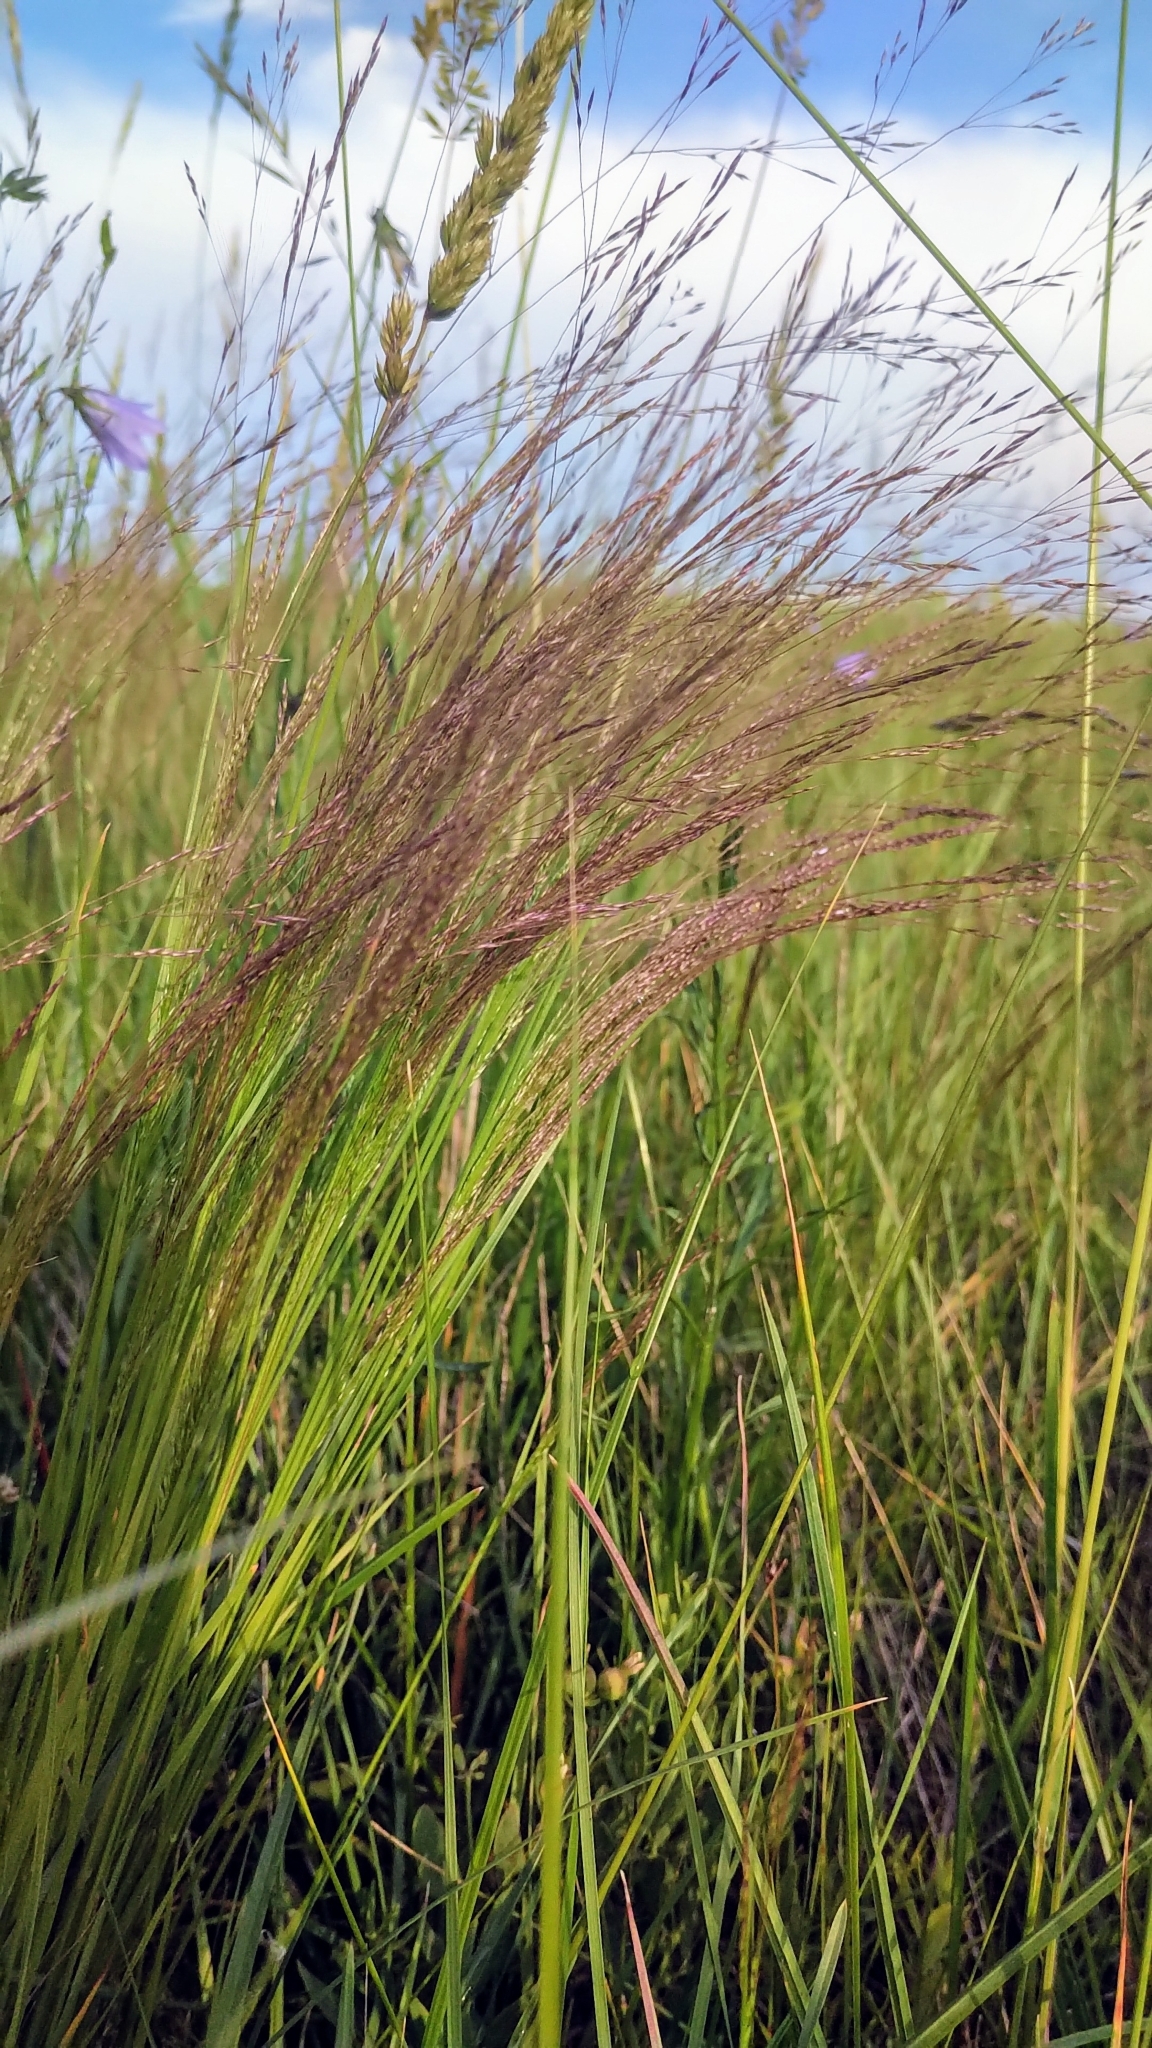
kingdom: Plantae
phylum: Tracheophyta
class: Liliopsida
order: Poales
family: Poaceae
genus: Agrostis
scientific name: Agrostis scabra
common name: Rough bent
